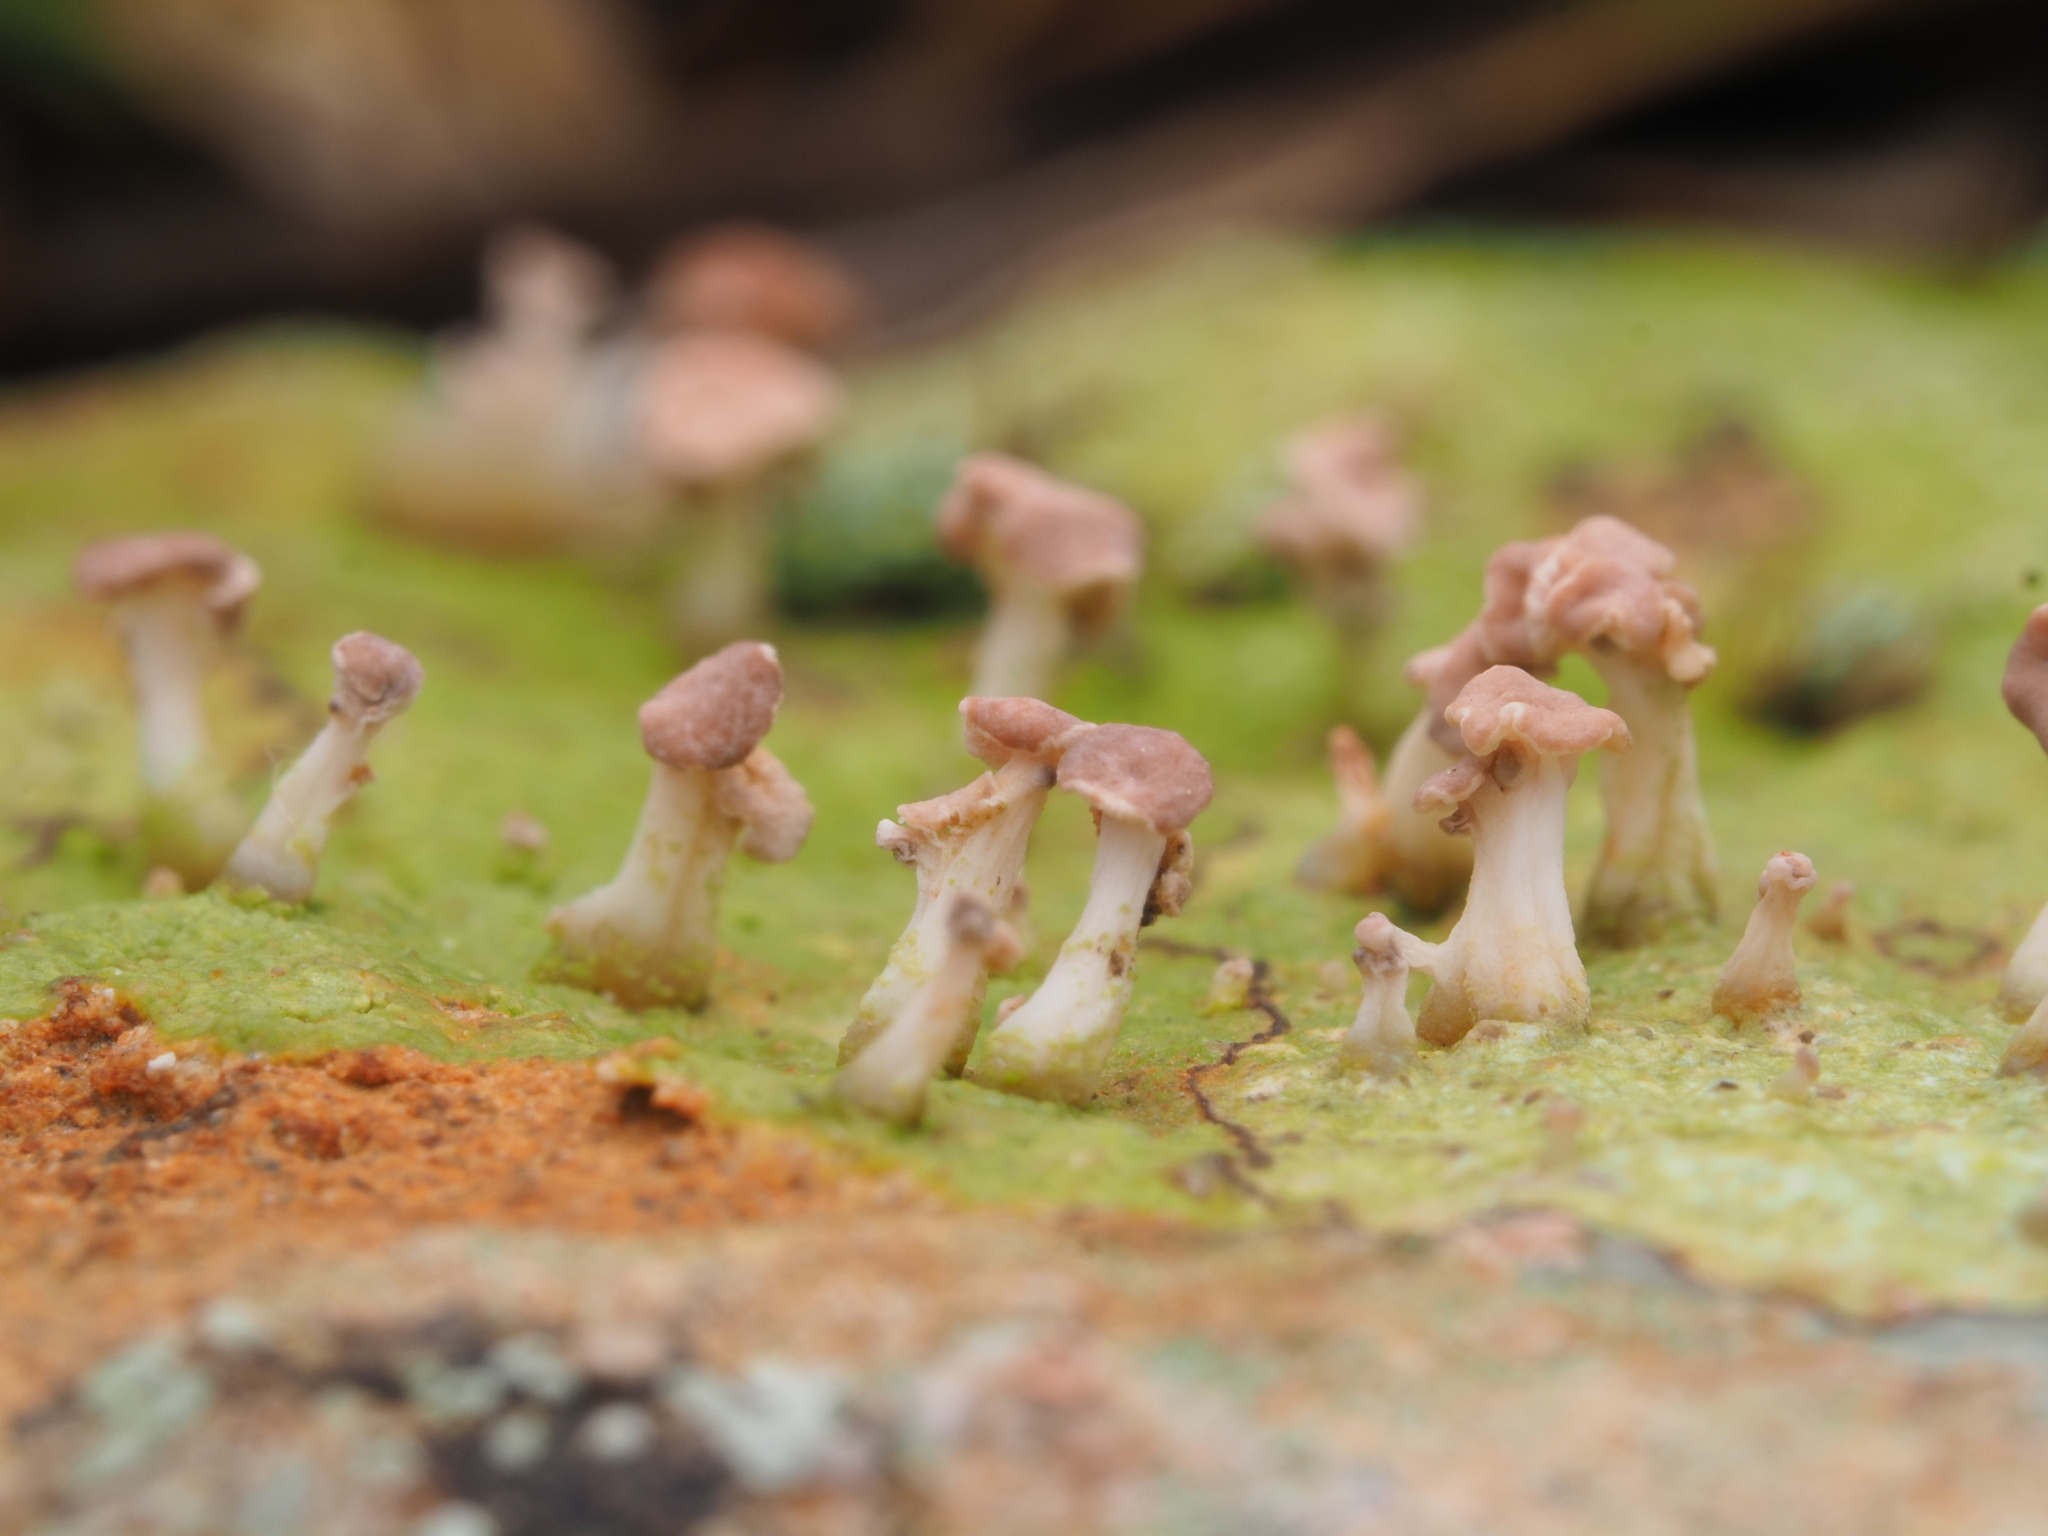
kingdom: Fungi
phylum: Ascomycota
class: Lecanoromycetes
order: Baeomycetales
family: Baeomycetaceae
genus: Baeomyces
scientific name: Baeomyces heteromorphus
